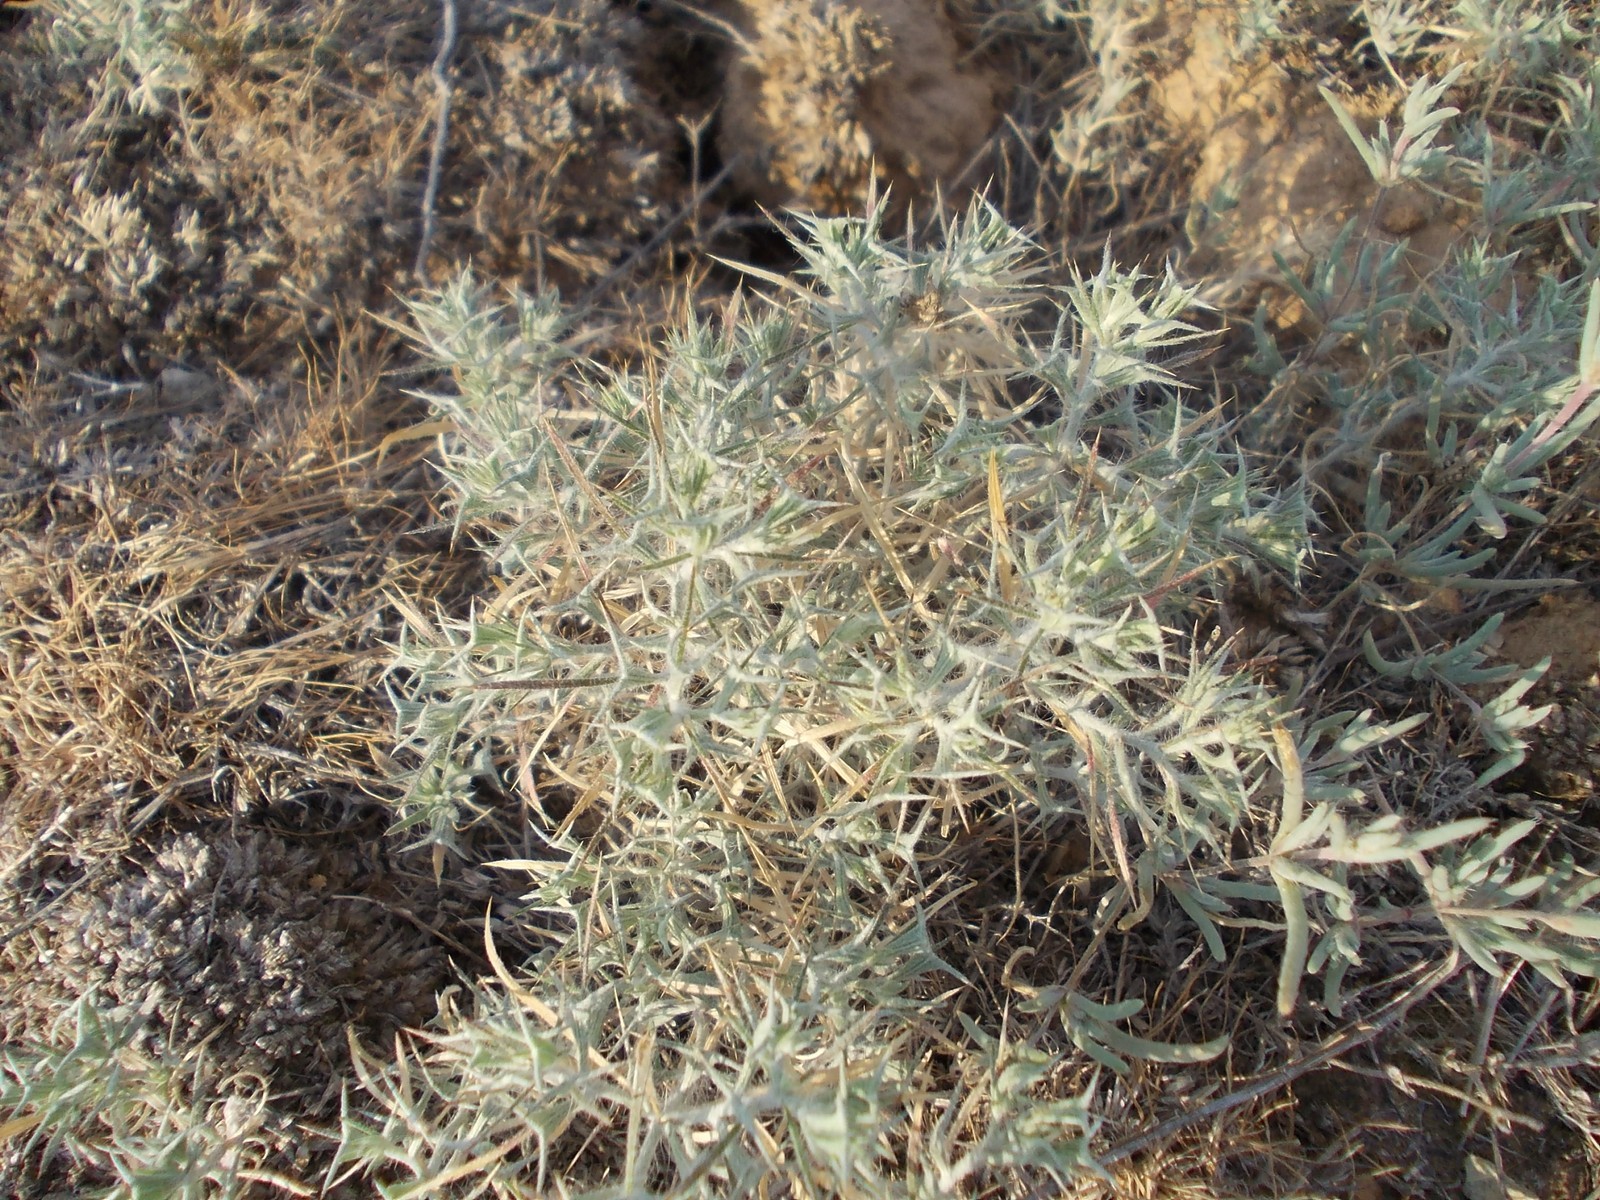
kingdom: Plantae
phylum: Tracheophyta
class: Magnoliopsida
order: Caryophyllales
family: Amaranthaceae
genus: Ceratocarpus
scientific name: Ceratocarpus arenarius
